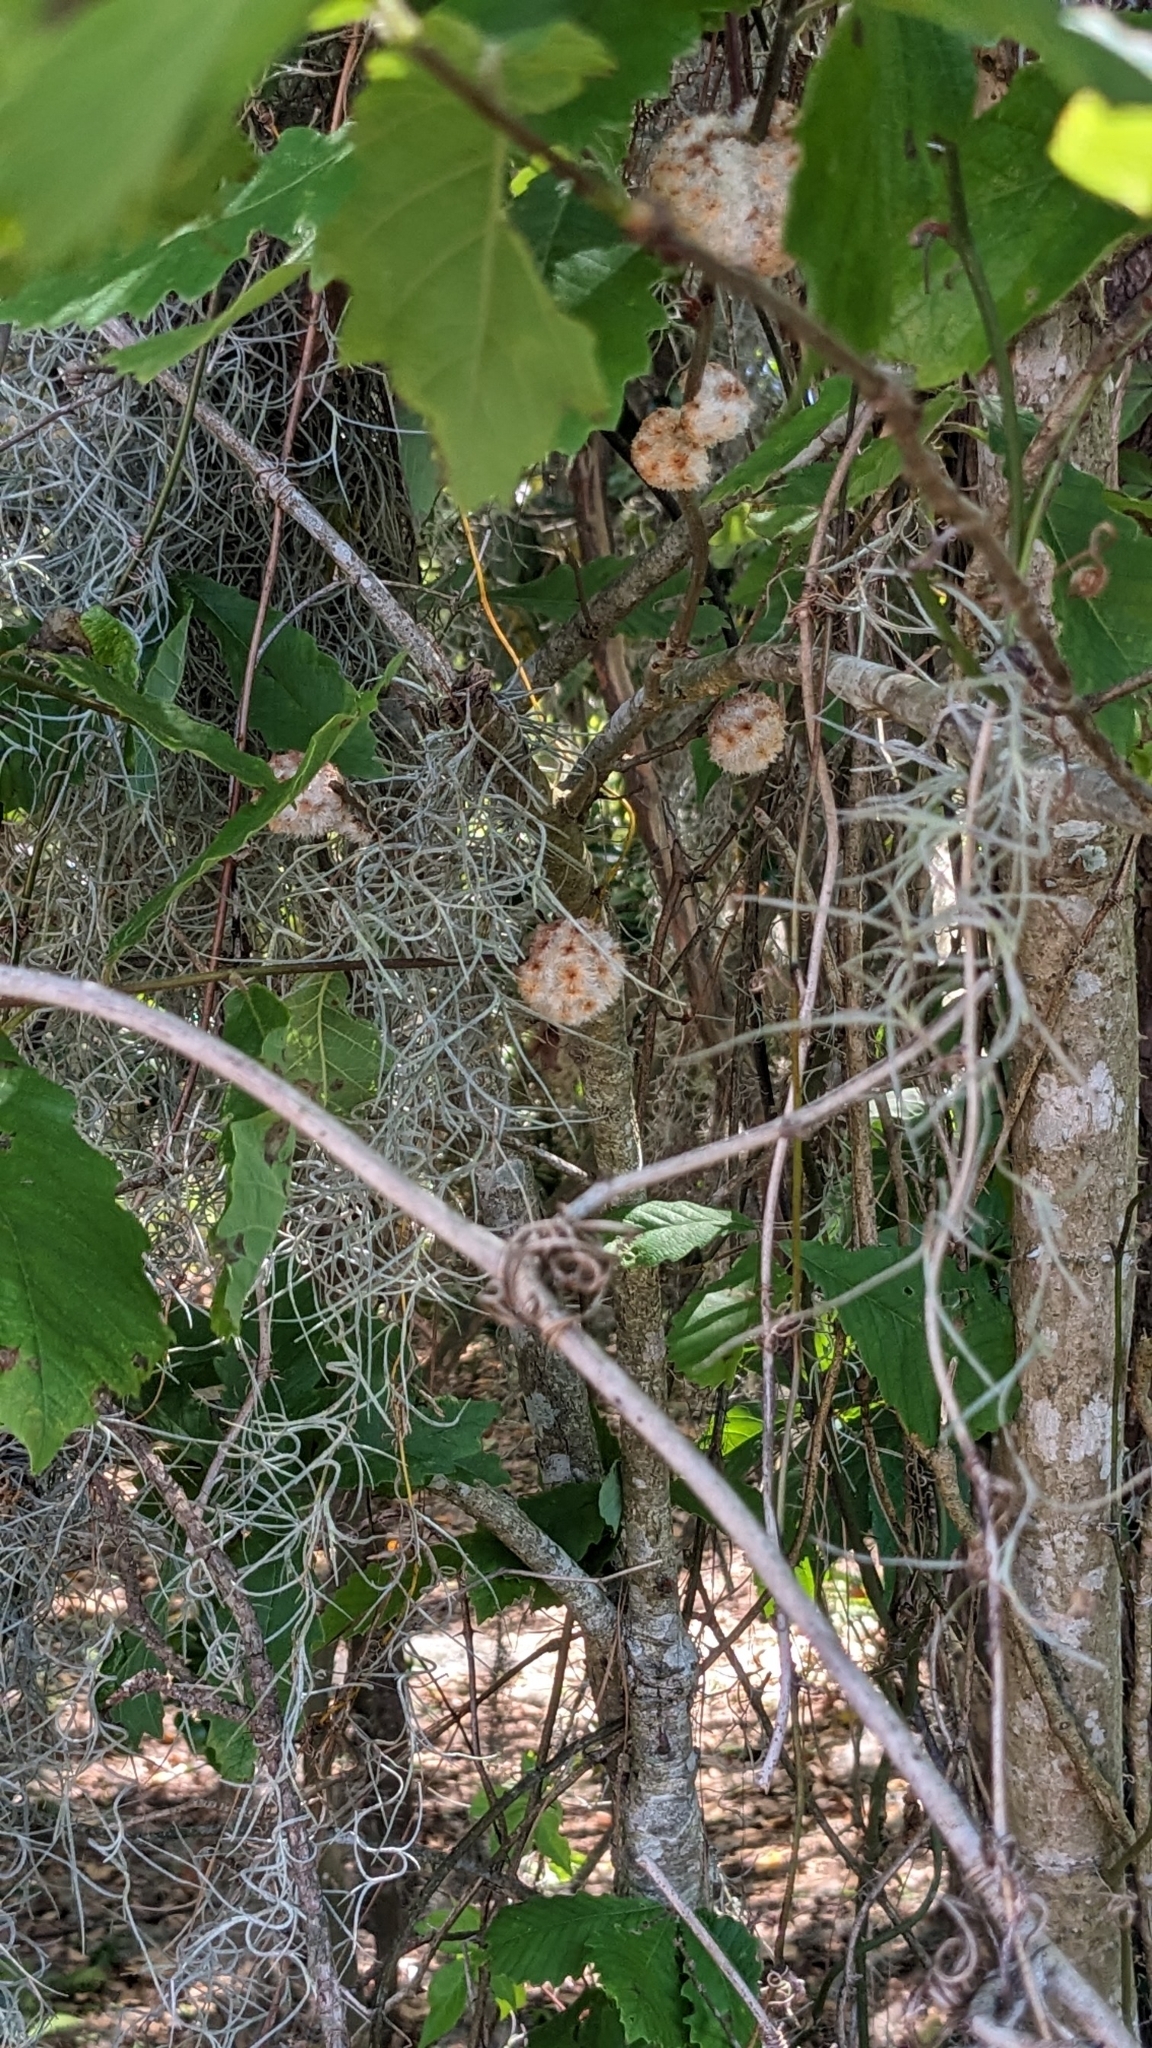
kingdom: Animalia
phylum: Arthropoda
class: Insecta
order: Hymenoptera
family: Cynipidae
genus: Callirhytis
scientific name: Callirhytis
